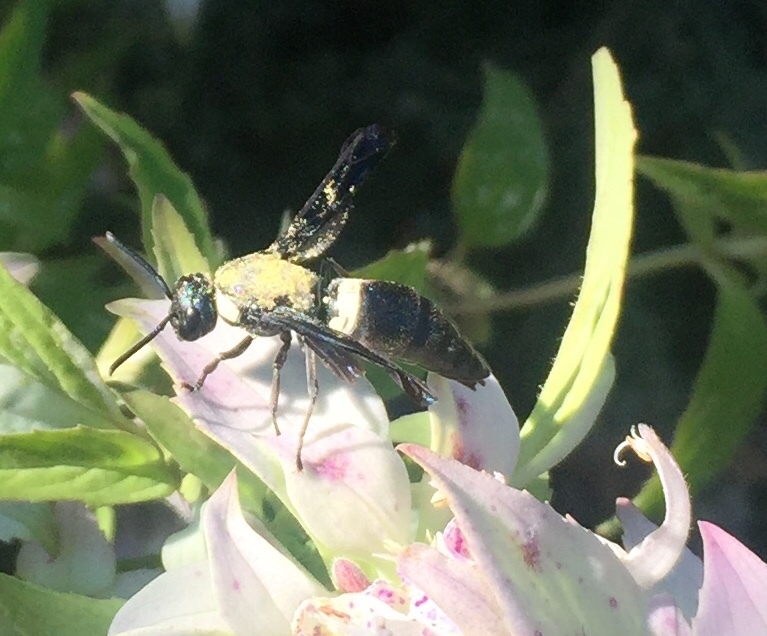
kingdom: Animalia
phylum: Arthropoda
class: Insecta
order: Hymenoptera
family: Eumenidae
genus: Monobia
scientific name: Monobia quadridens
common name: Four-toothed mason wasp
